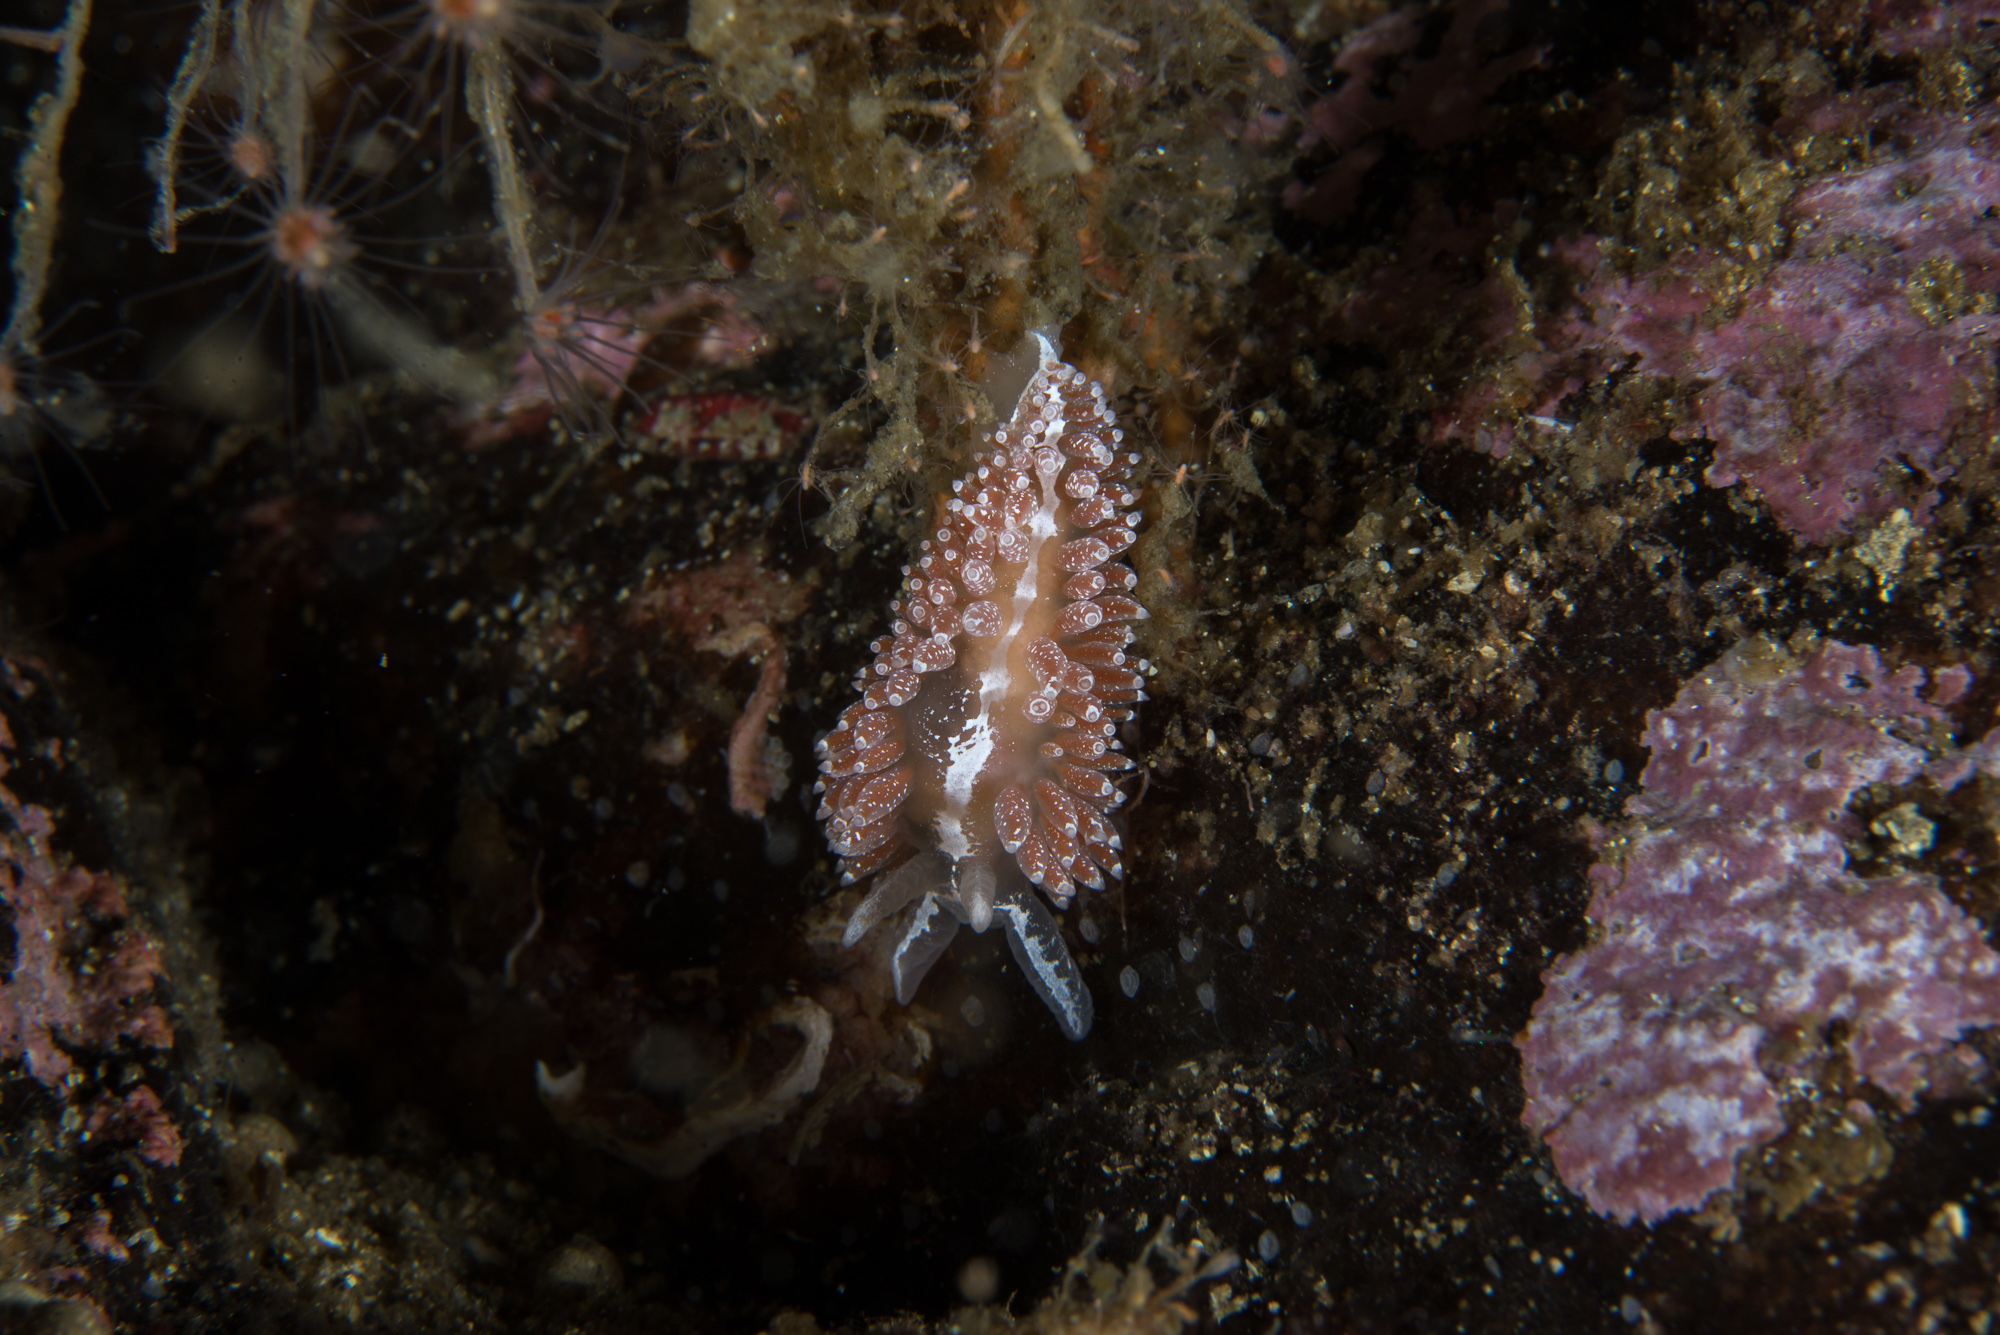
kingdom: Animalia
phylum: Mollusca
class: Gastropoda
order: Nudibranchia
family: Coryphellidae
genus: Coryphella
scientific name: Coryphella orjani
